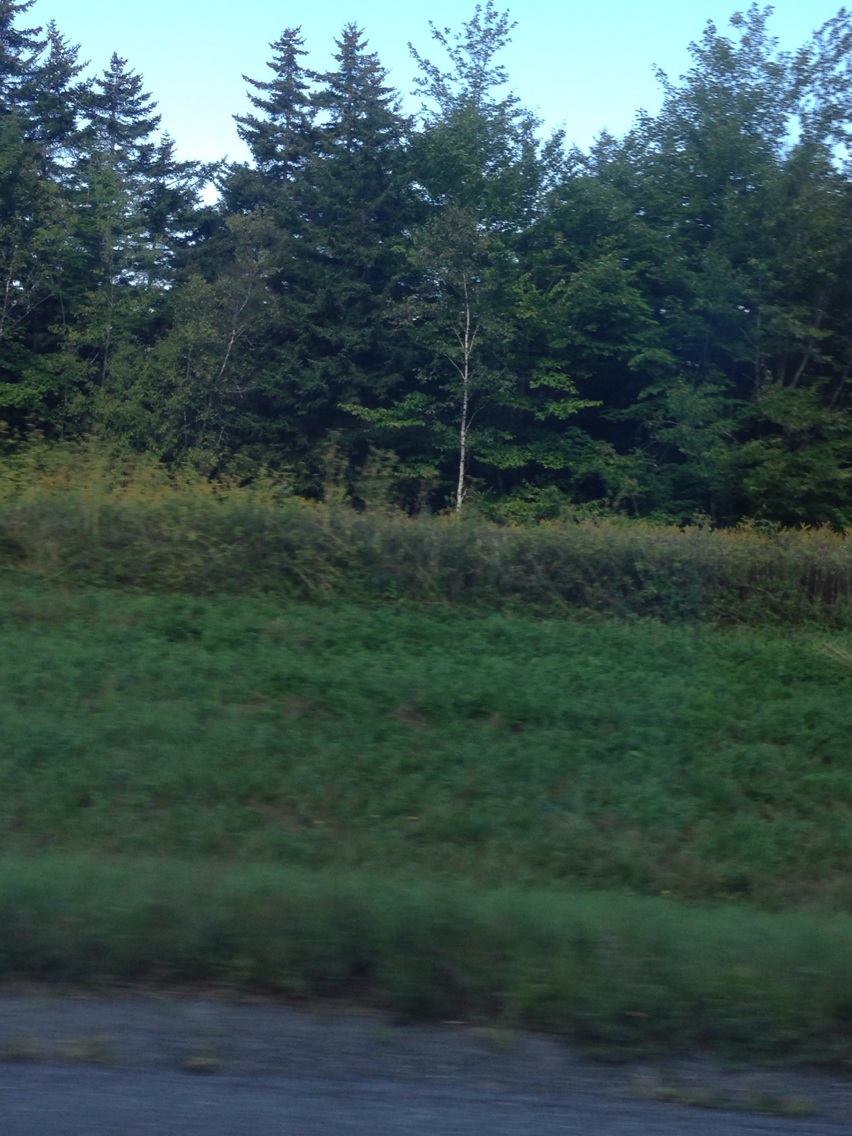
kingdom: Plantae
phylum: Tracheophyta
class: Magnoliopsida
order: Apiales
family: Apiaceae
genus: Pastinaca
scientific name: Pastinaca sativa
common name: Wild parsnip
